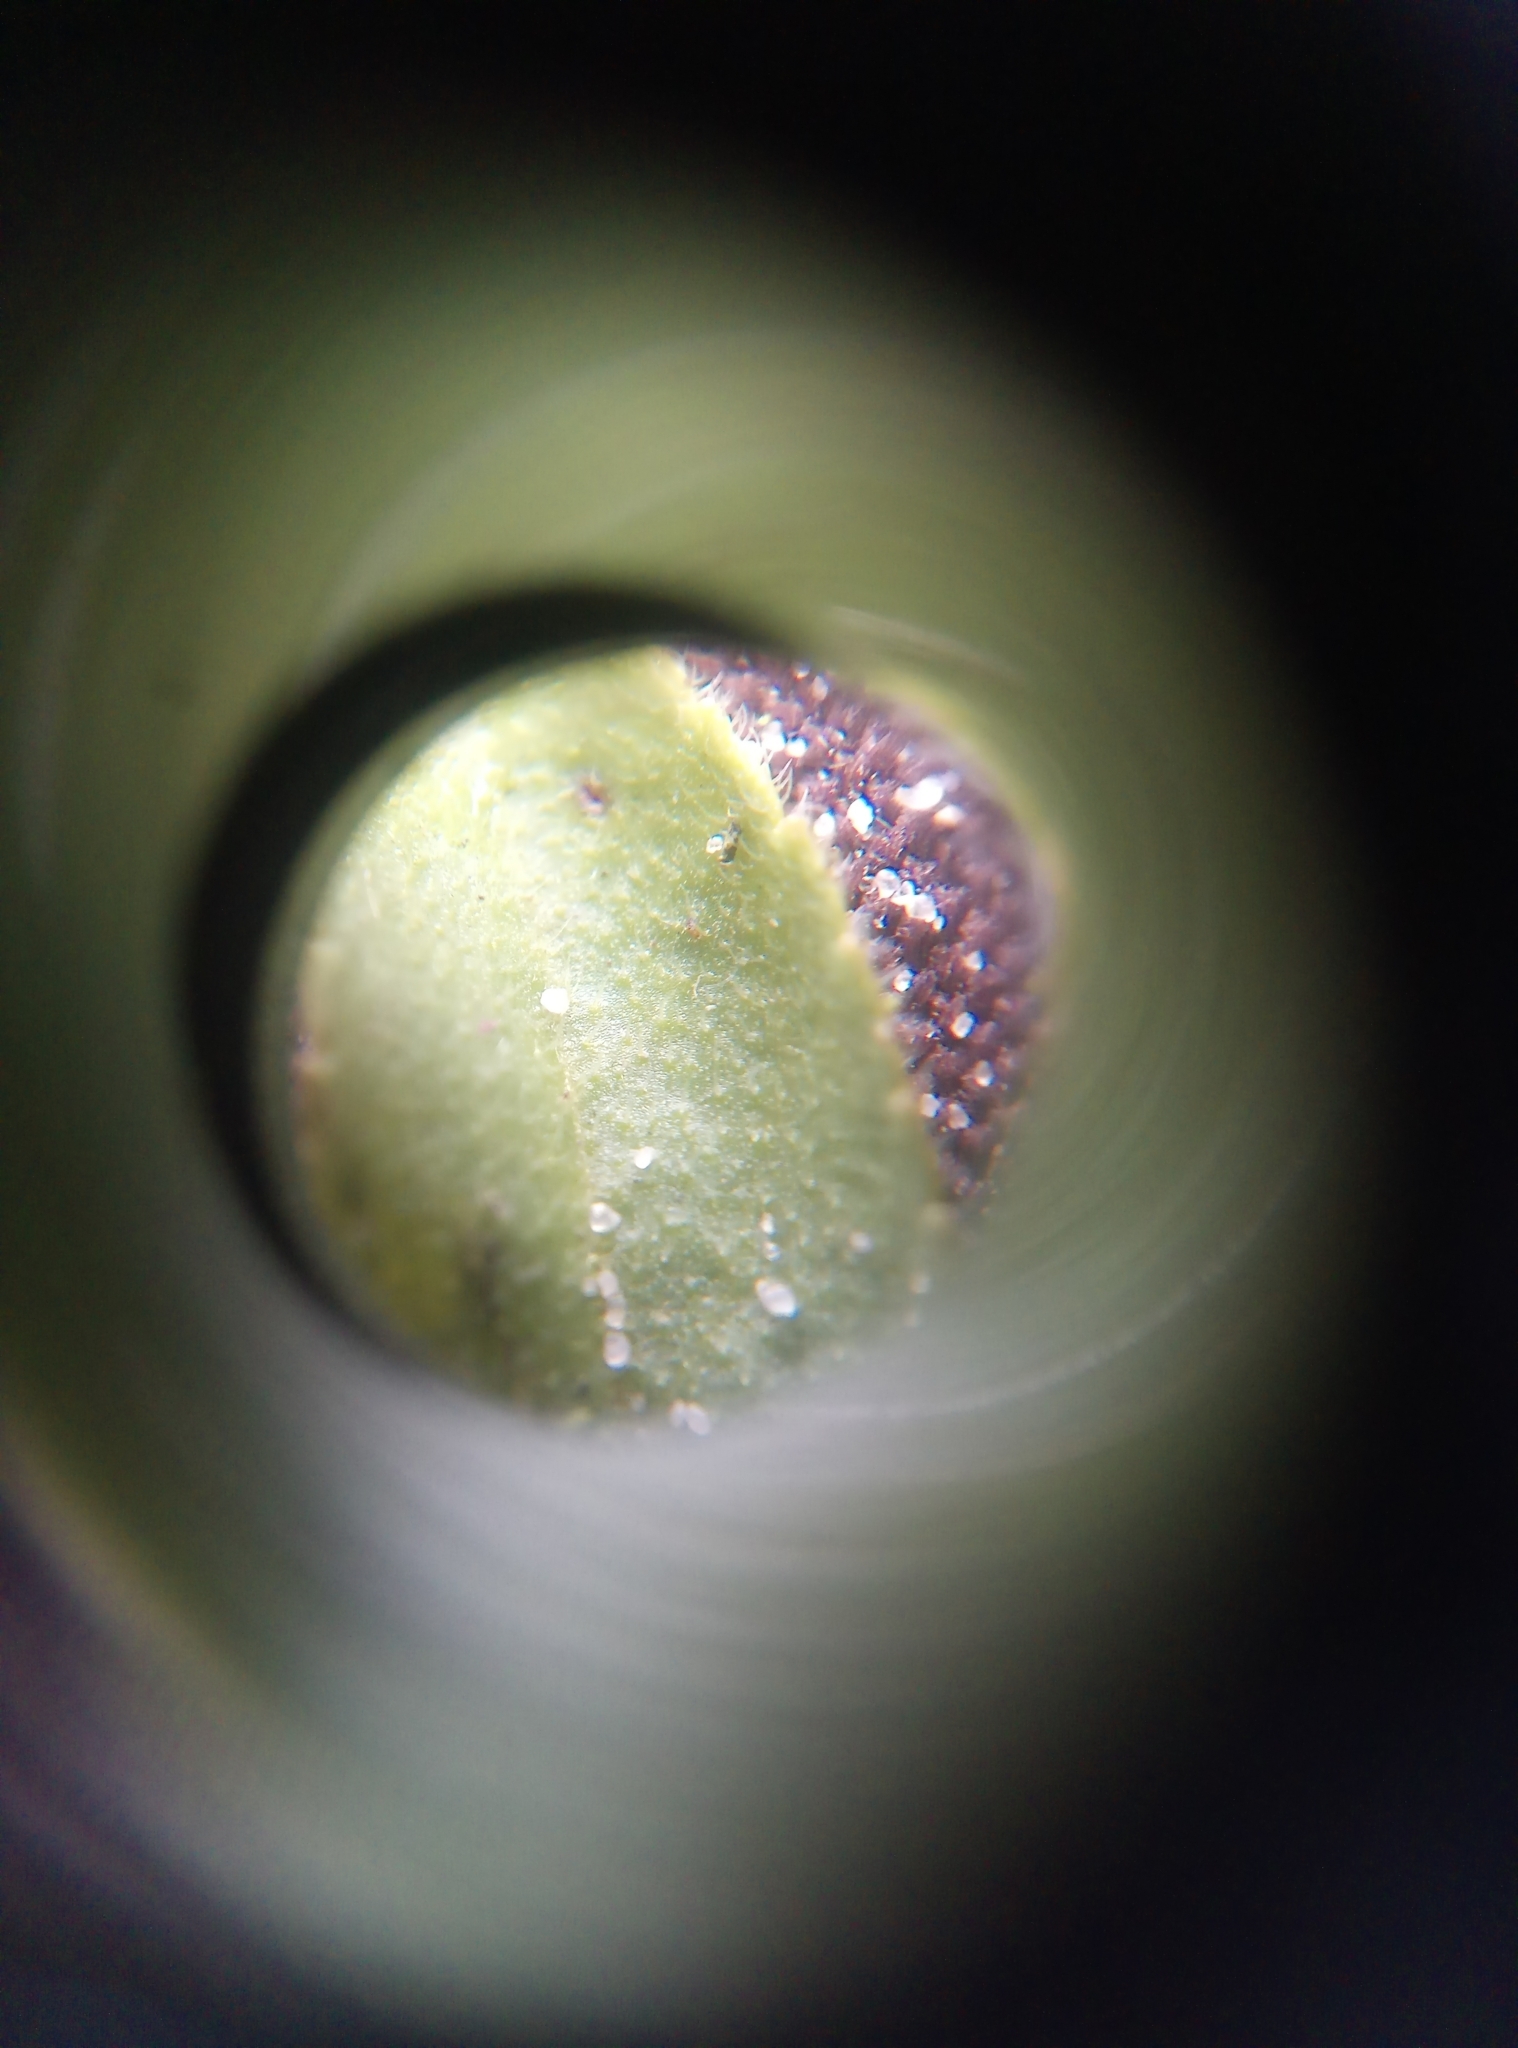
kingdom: Plantae
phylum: Tracheophyta
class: Magnoliopsida
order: Lamiales
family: Plantaginaceae
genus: Veronica
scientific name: Veronica officinalis
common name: Common speedwell
